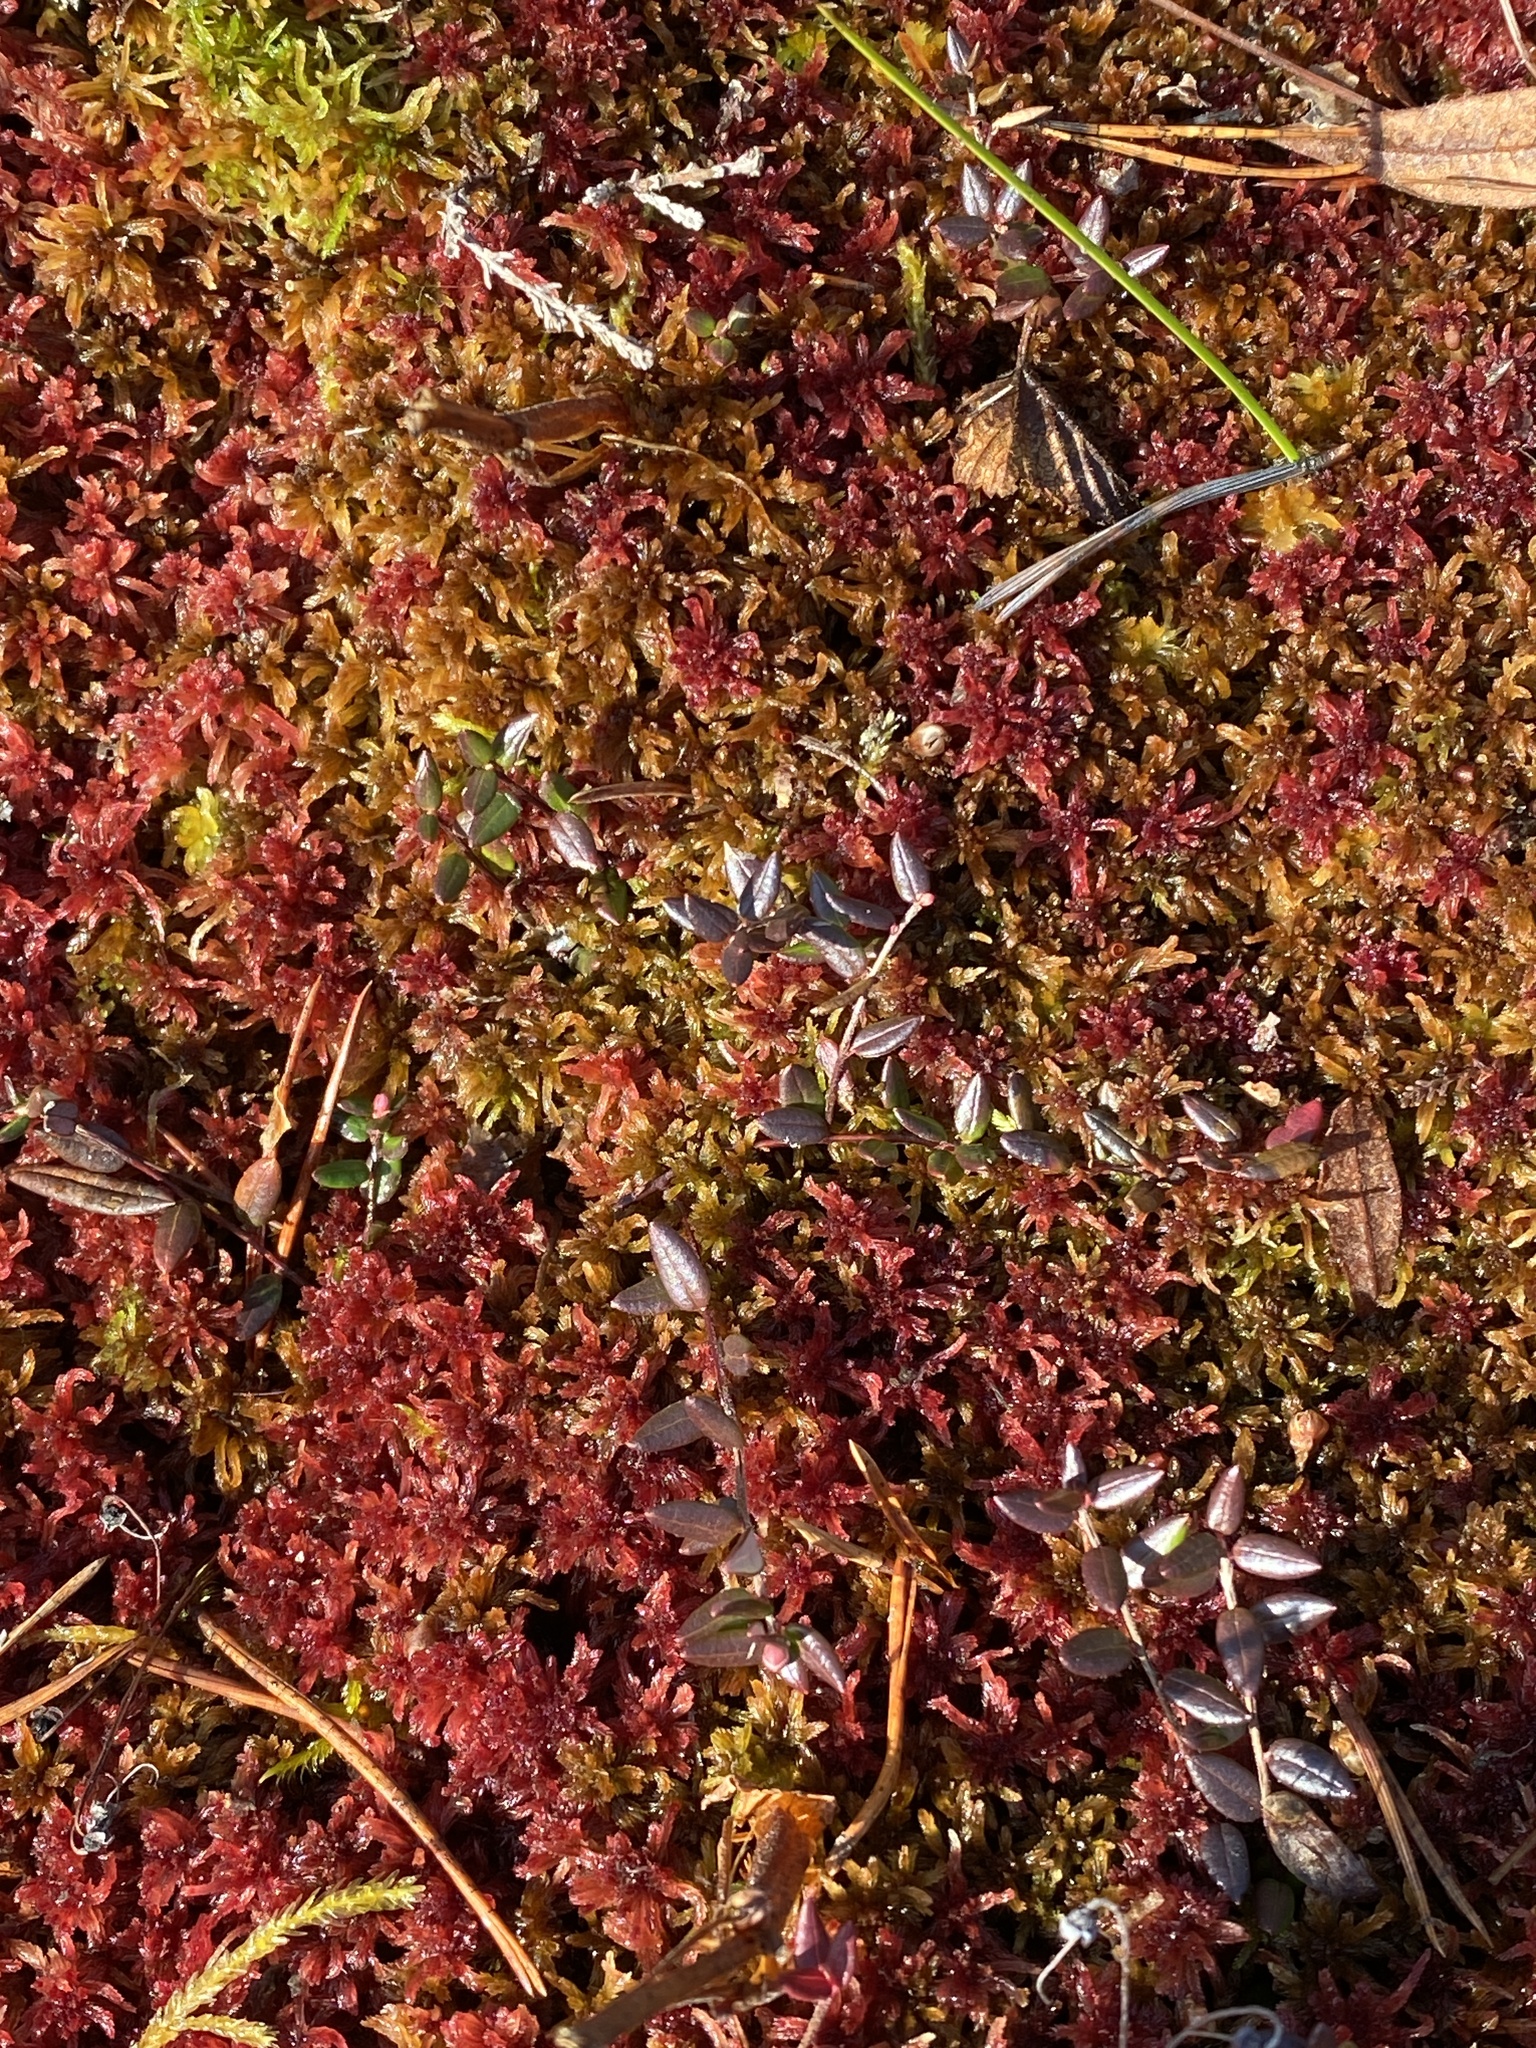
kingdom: Plantae
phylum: Tracheophyta
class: Magnoliopsida
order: Ericales
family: Ericaceae
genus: Vaccinium
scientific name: Vaccinium oxycoccos
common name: Cranberry
